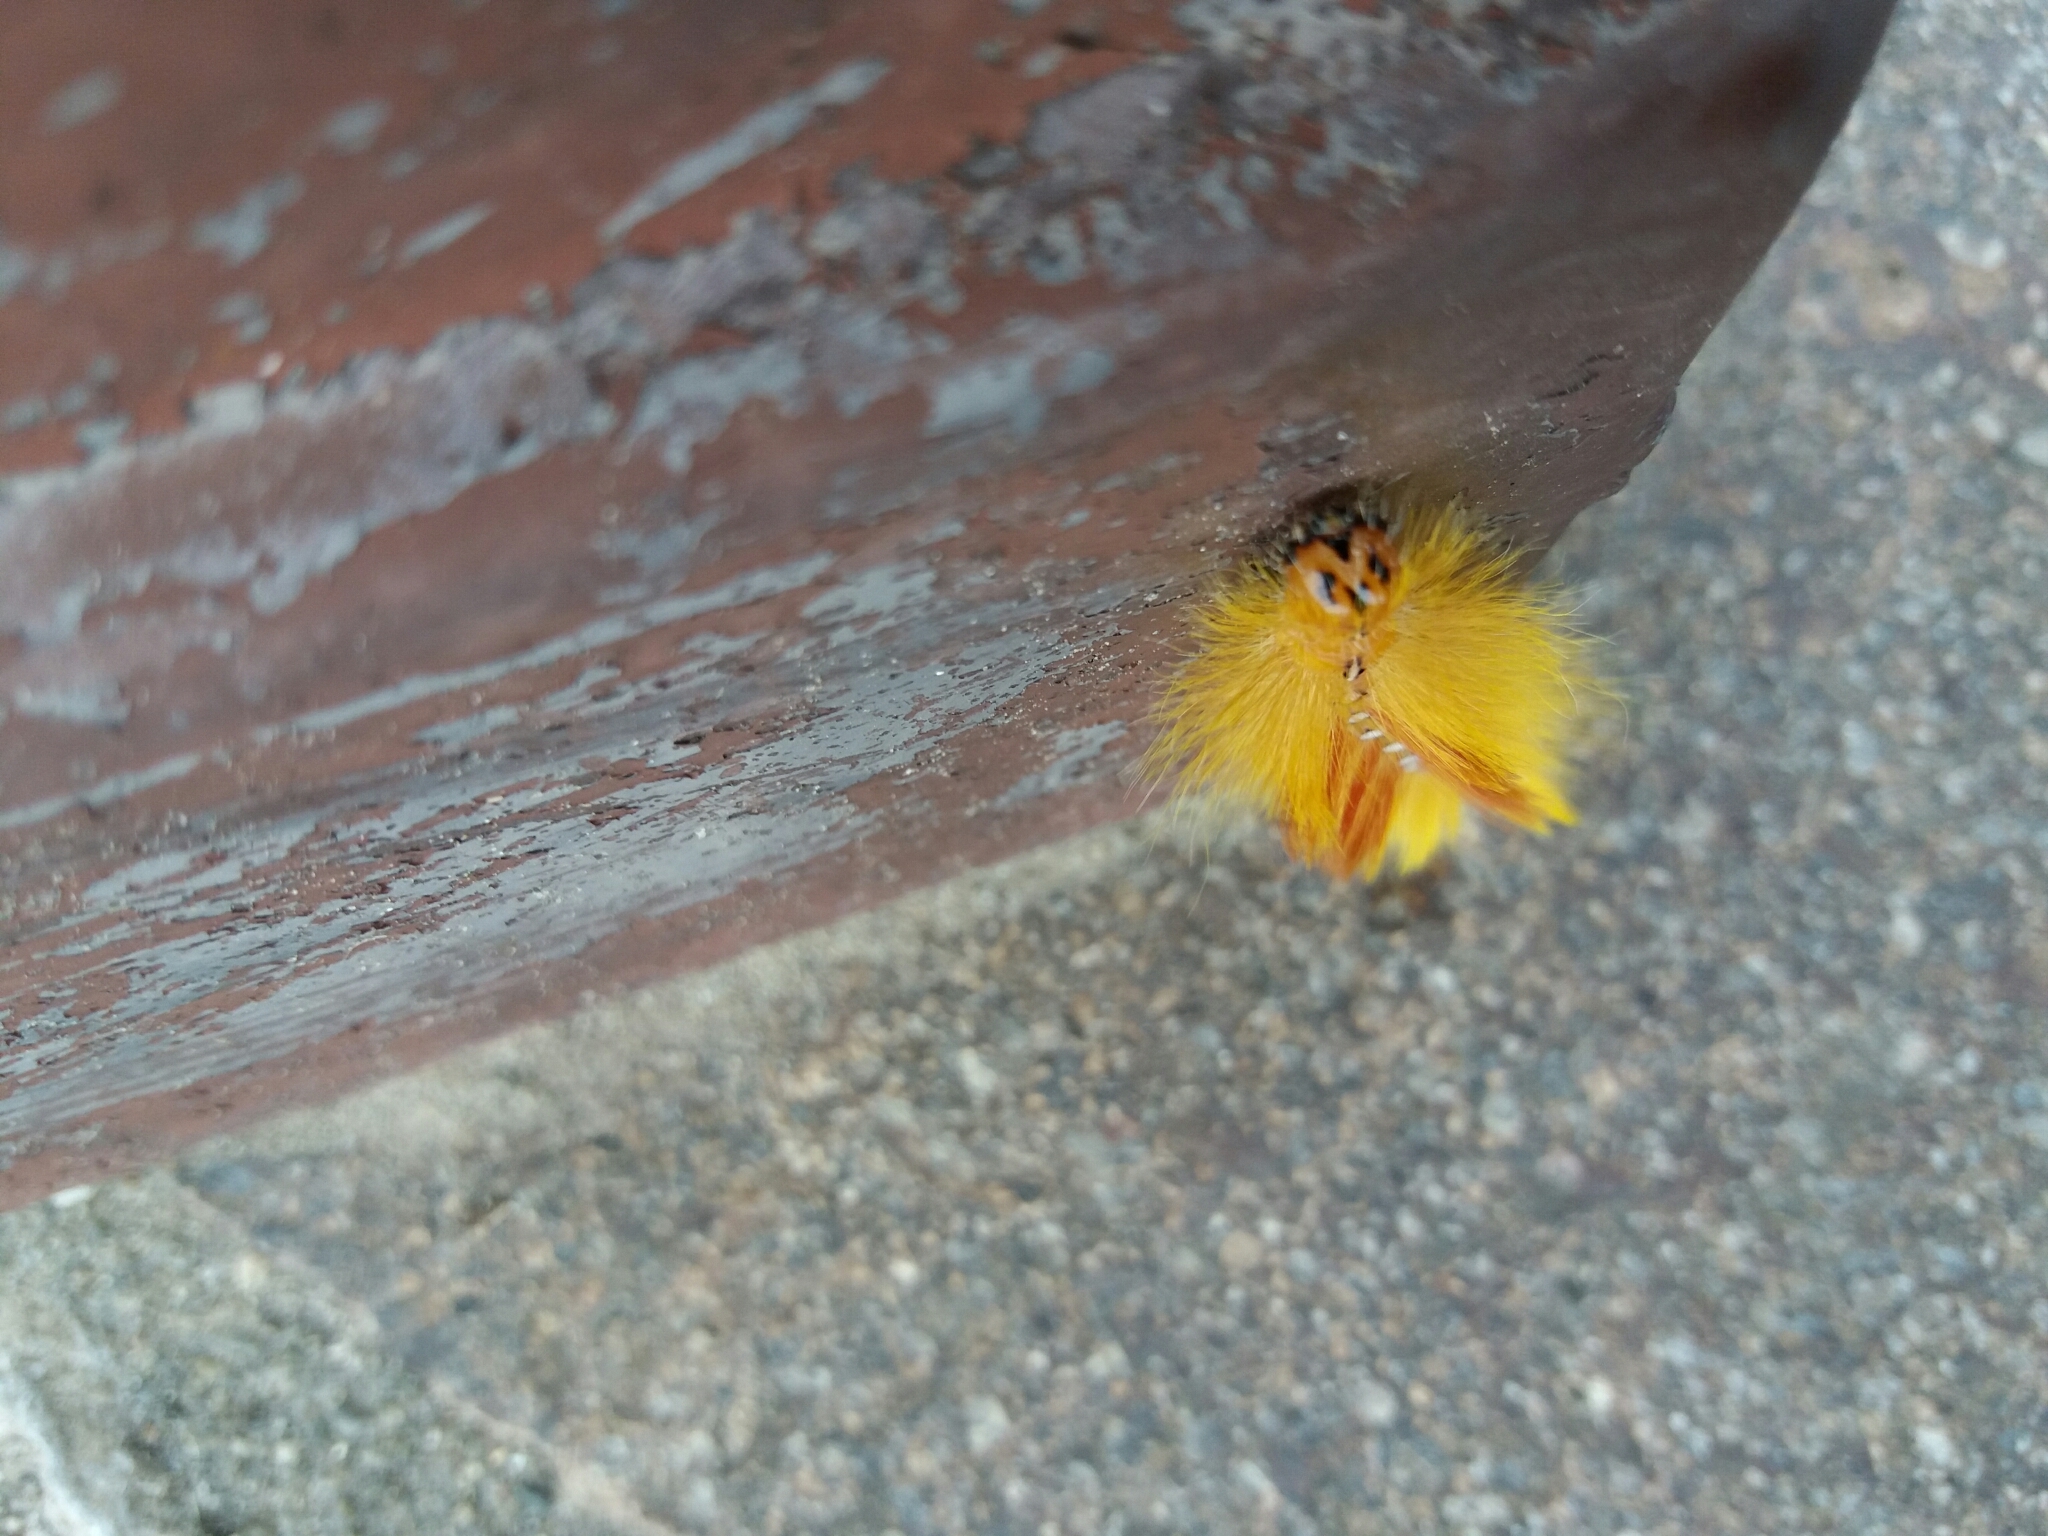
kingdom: Animalia
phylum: Arthropoda
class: Insecta
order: Lepidoptera
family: Noctuidae
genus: Acronicta
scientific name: Acronicta aceris
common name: Sycamore
